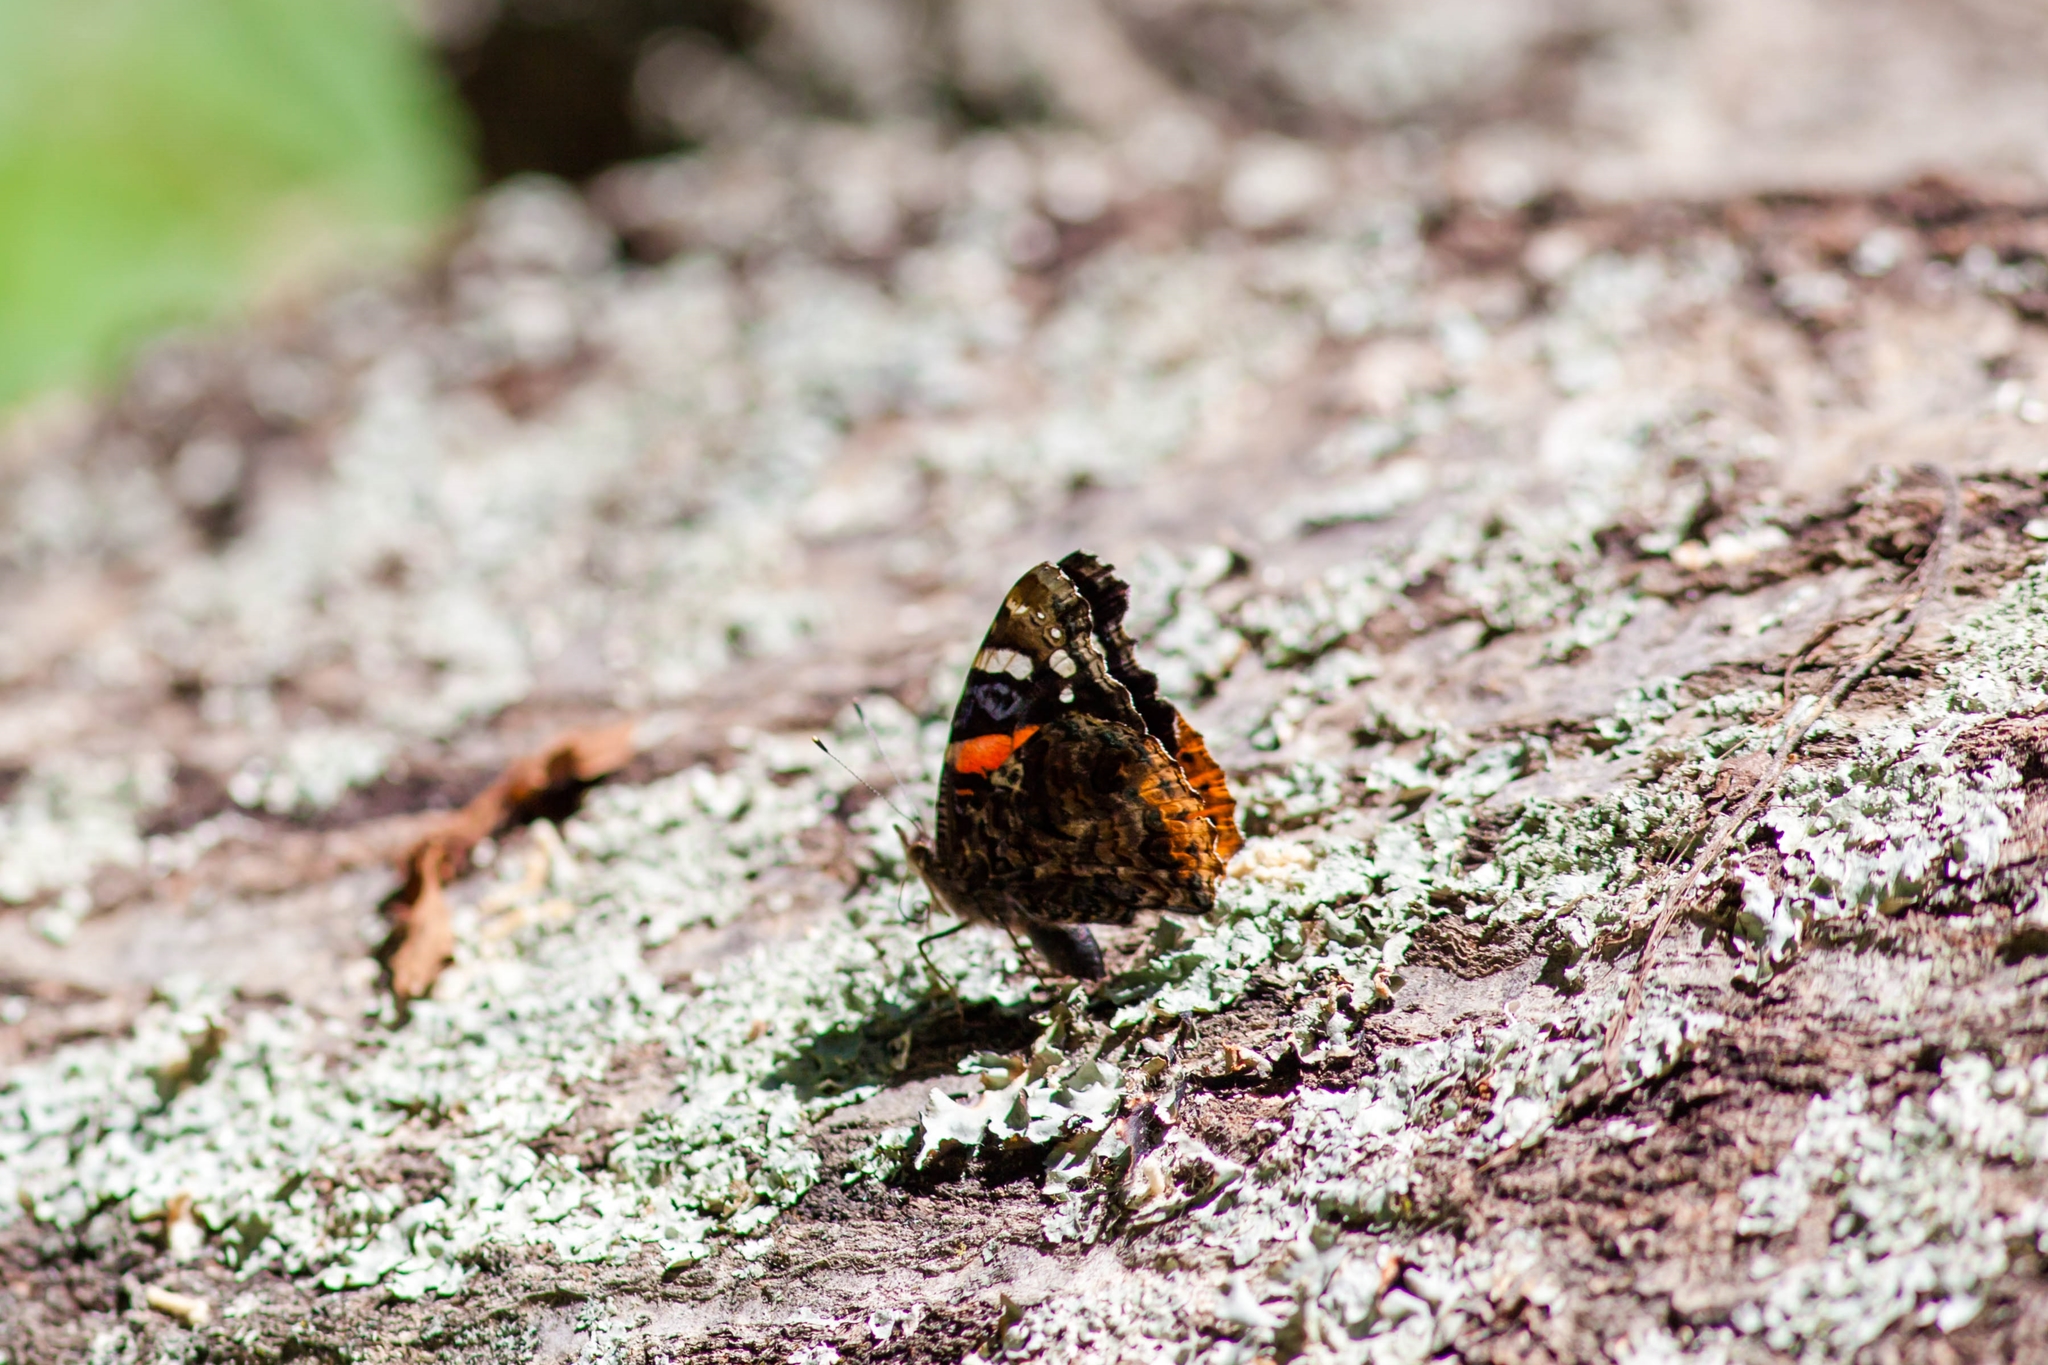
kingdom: Animalia
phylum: Arthropoda
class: Insecta
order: Lepidoptera
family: Nymphalidae
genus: Vanessa
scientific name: Vanessa atalanta
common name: Red admiral
